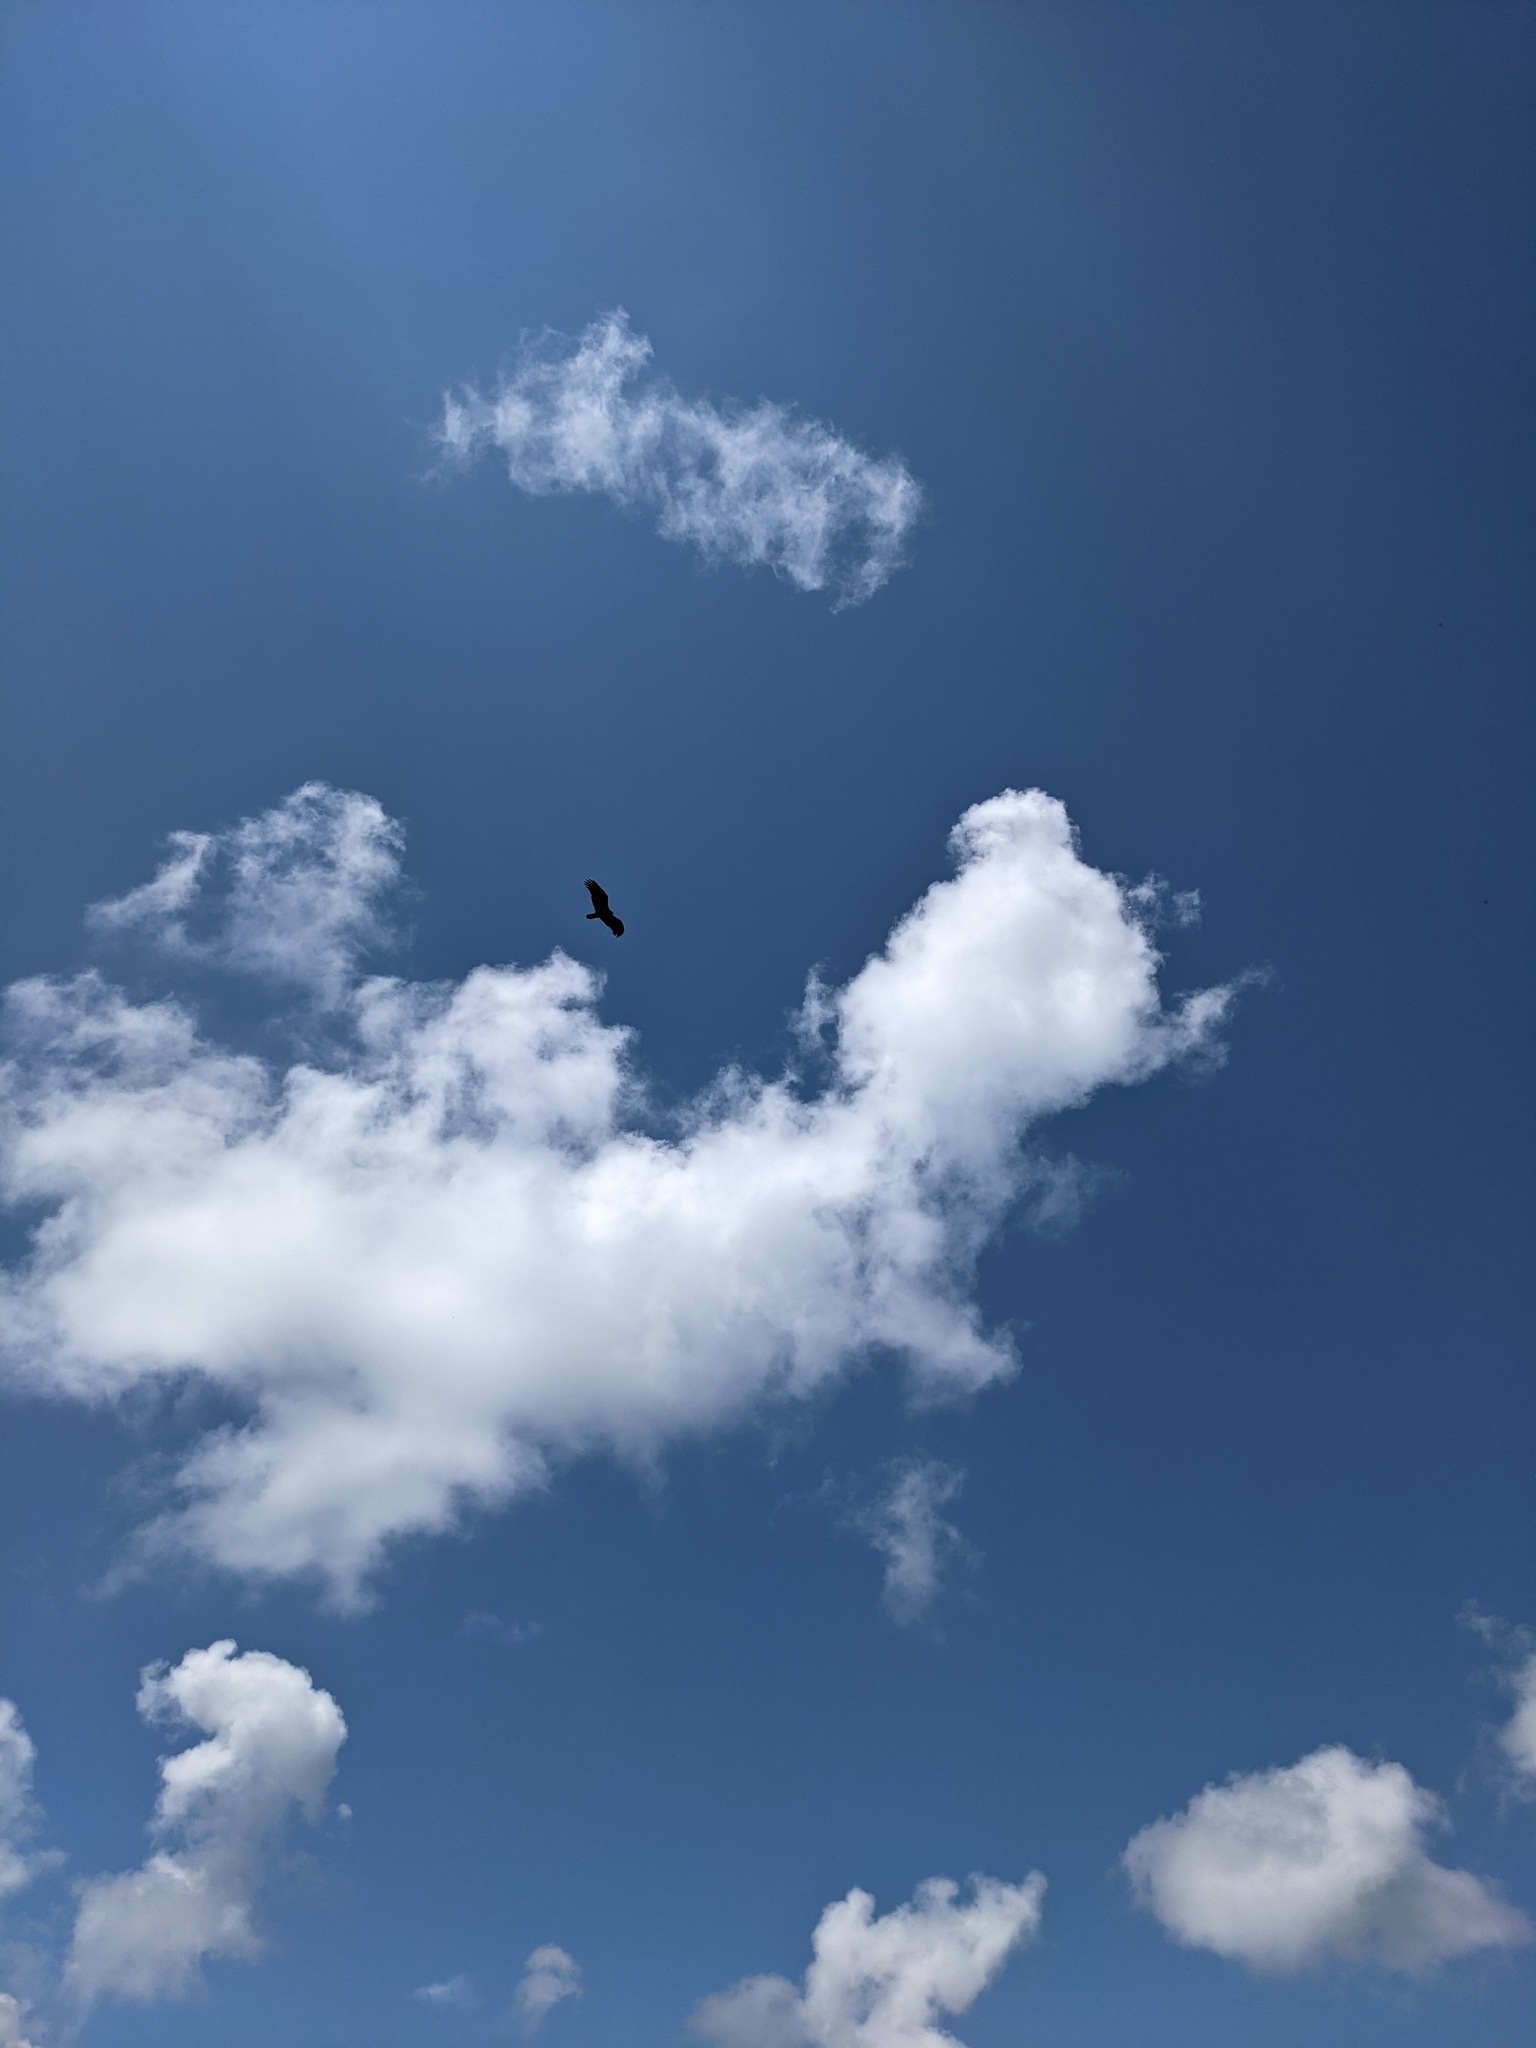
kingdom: Animalia
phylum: Chordata
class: Aves
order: Accipitriformes
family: Cathartidae
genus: Cathartes
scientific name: Cathartes aura
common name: Turkey vulture
